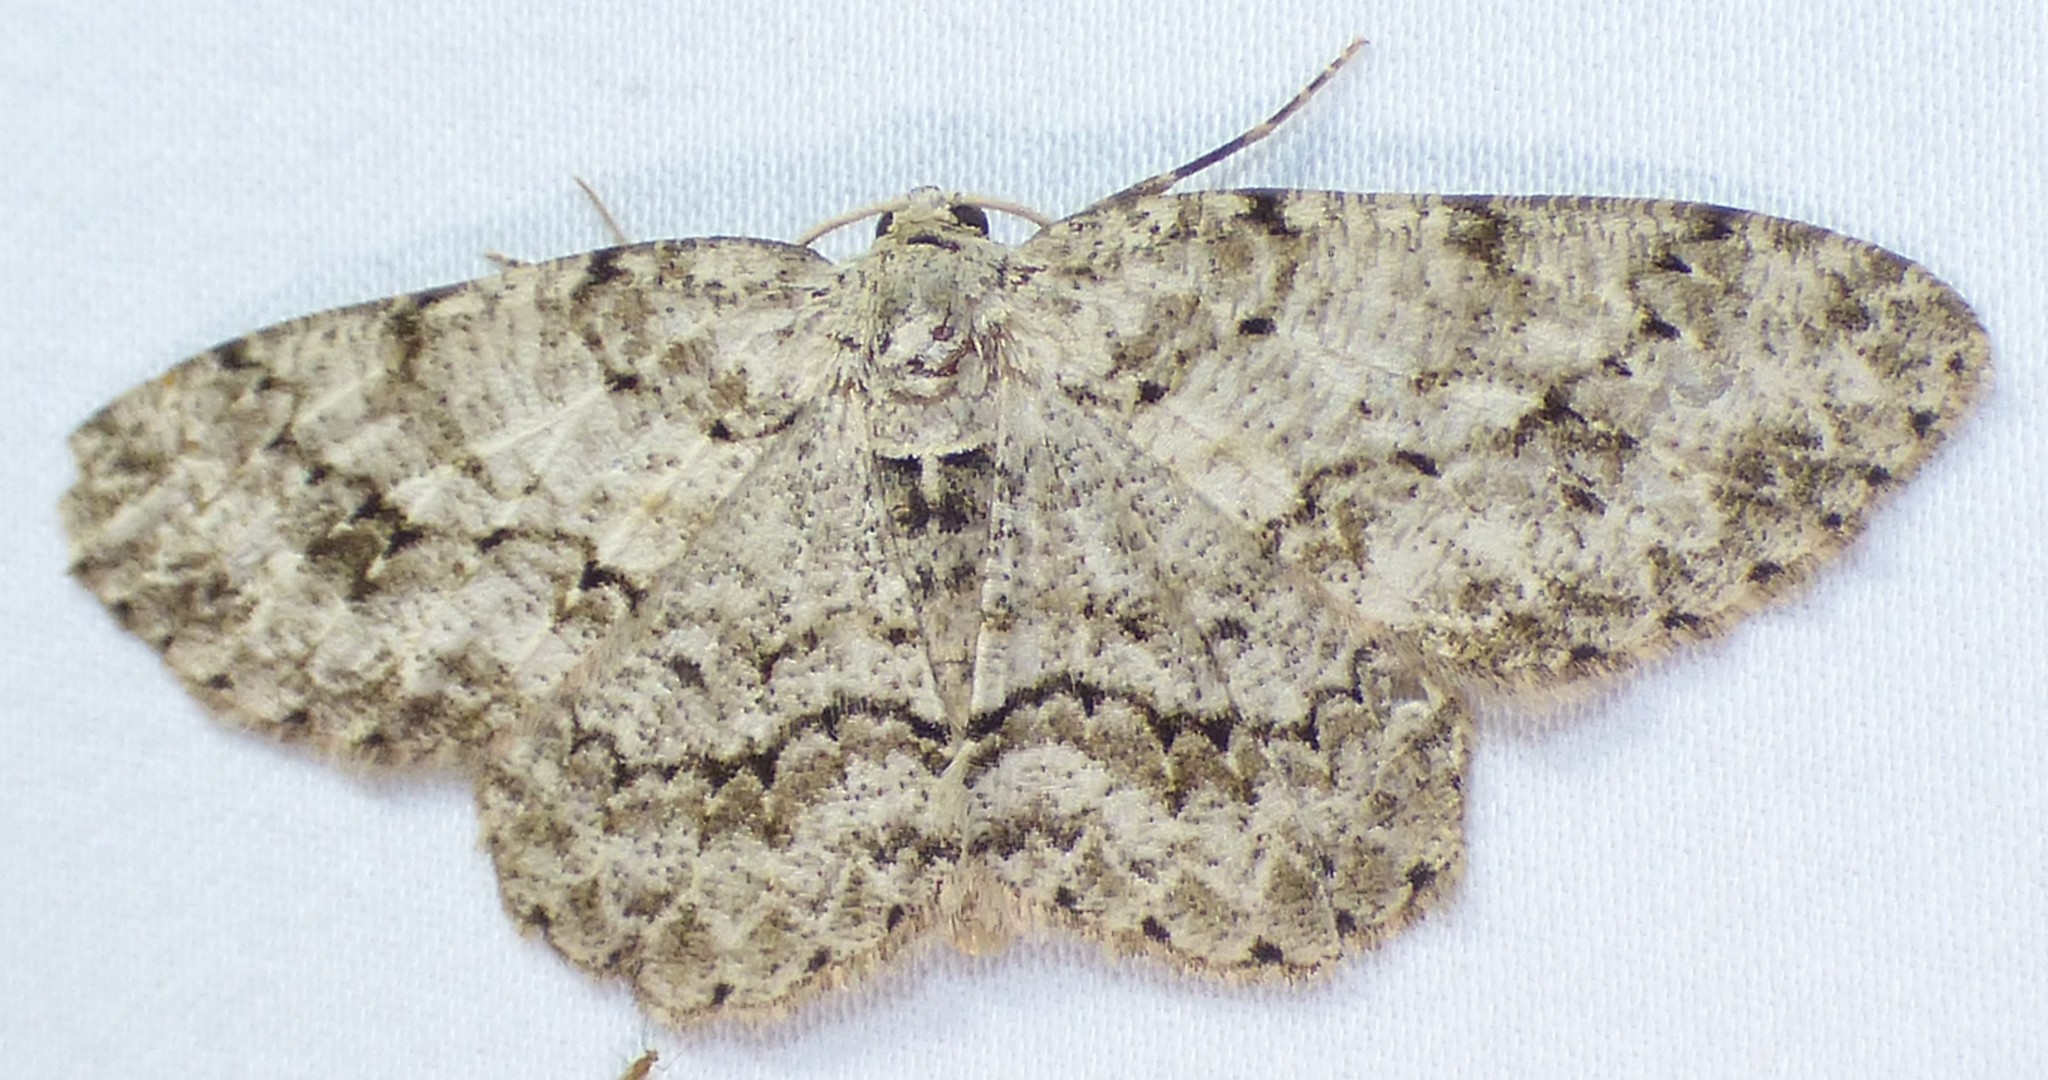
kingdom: Animalia
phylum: Arthropoda
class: Insecta
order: Lepidoptera
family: Geometridae
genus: Ectropis
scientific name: Ectropis crepuscularia
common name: Engrailed
